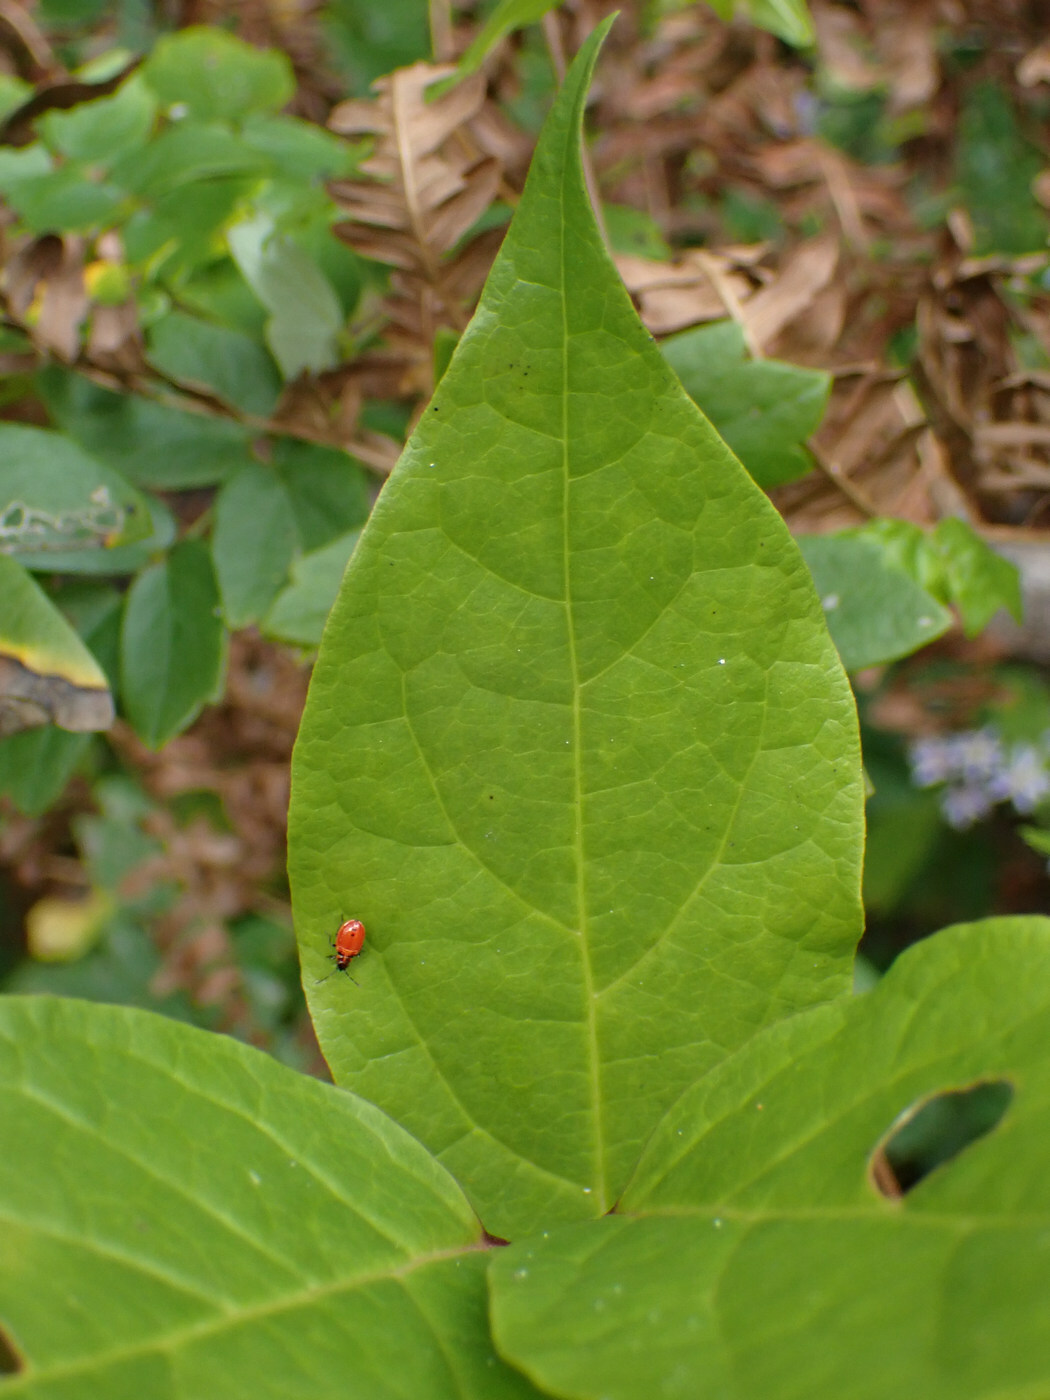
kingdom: Animalia
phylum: Arthropoda
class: Insecta
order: Hemiptera
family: Lygaeidae
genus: Lygaeus
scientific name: Lygaeus turcicus
